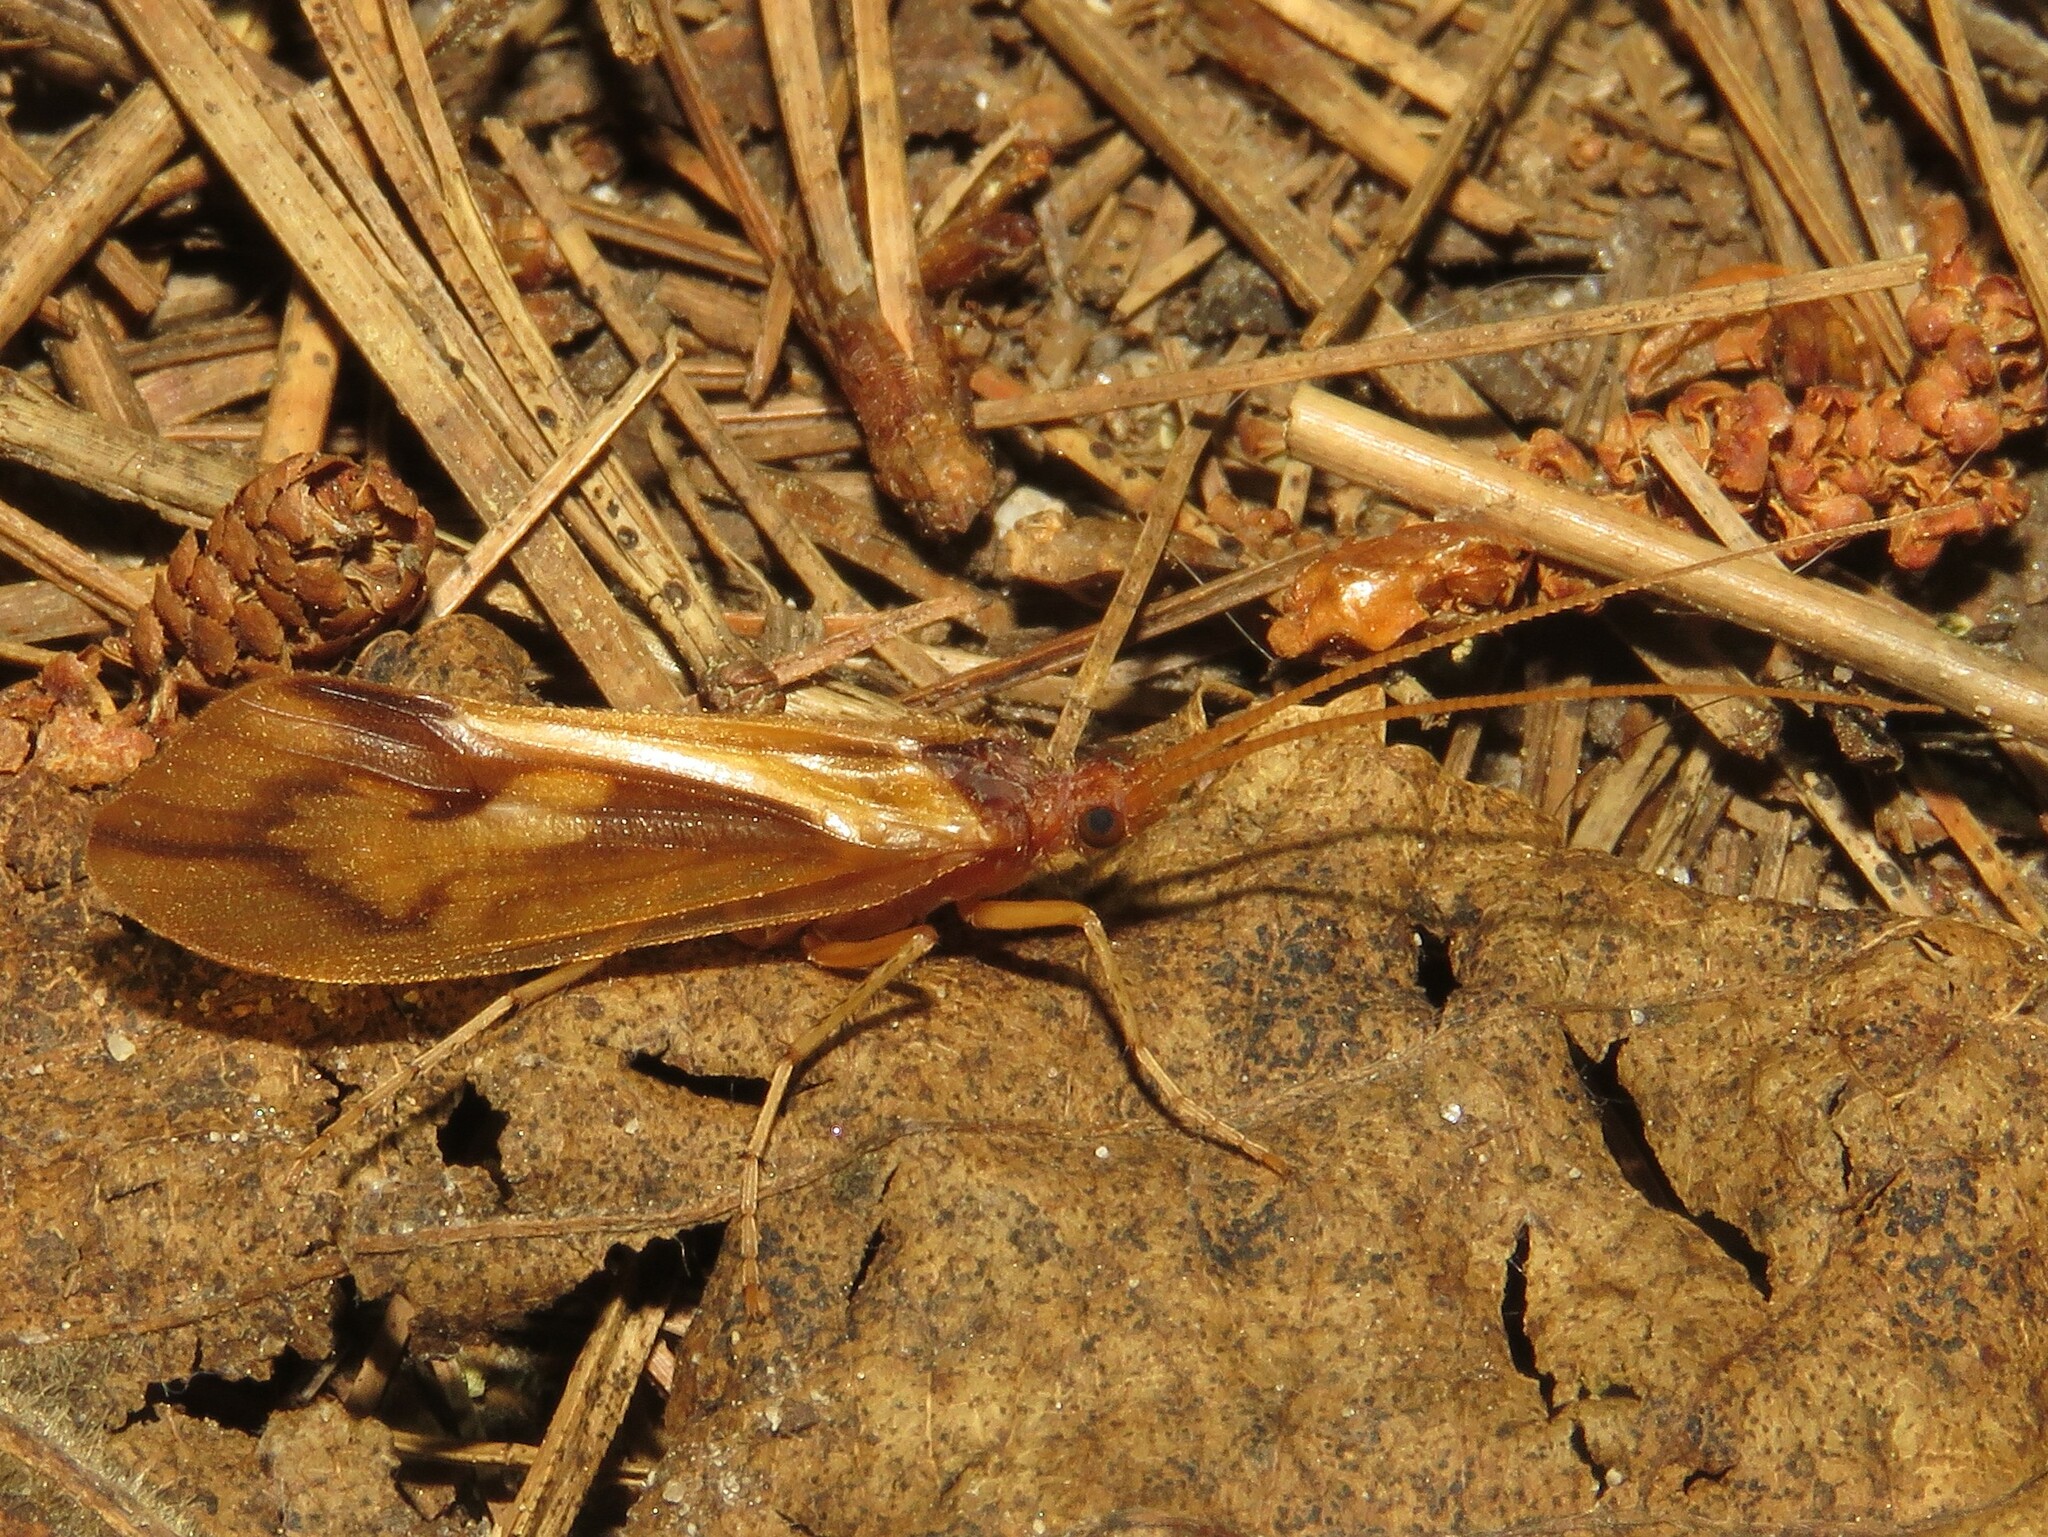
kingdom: Animalia
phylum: Arthropoda
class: Insecta
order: Trichoptera
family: Limnephilidae
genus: Platycentropus
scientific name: Platycentropus radiatus
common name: Chocolate-and-cream sedge
